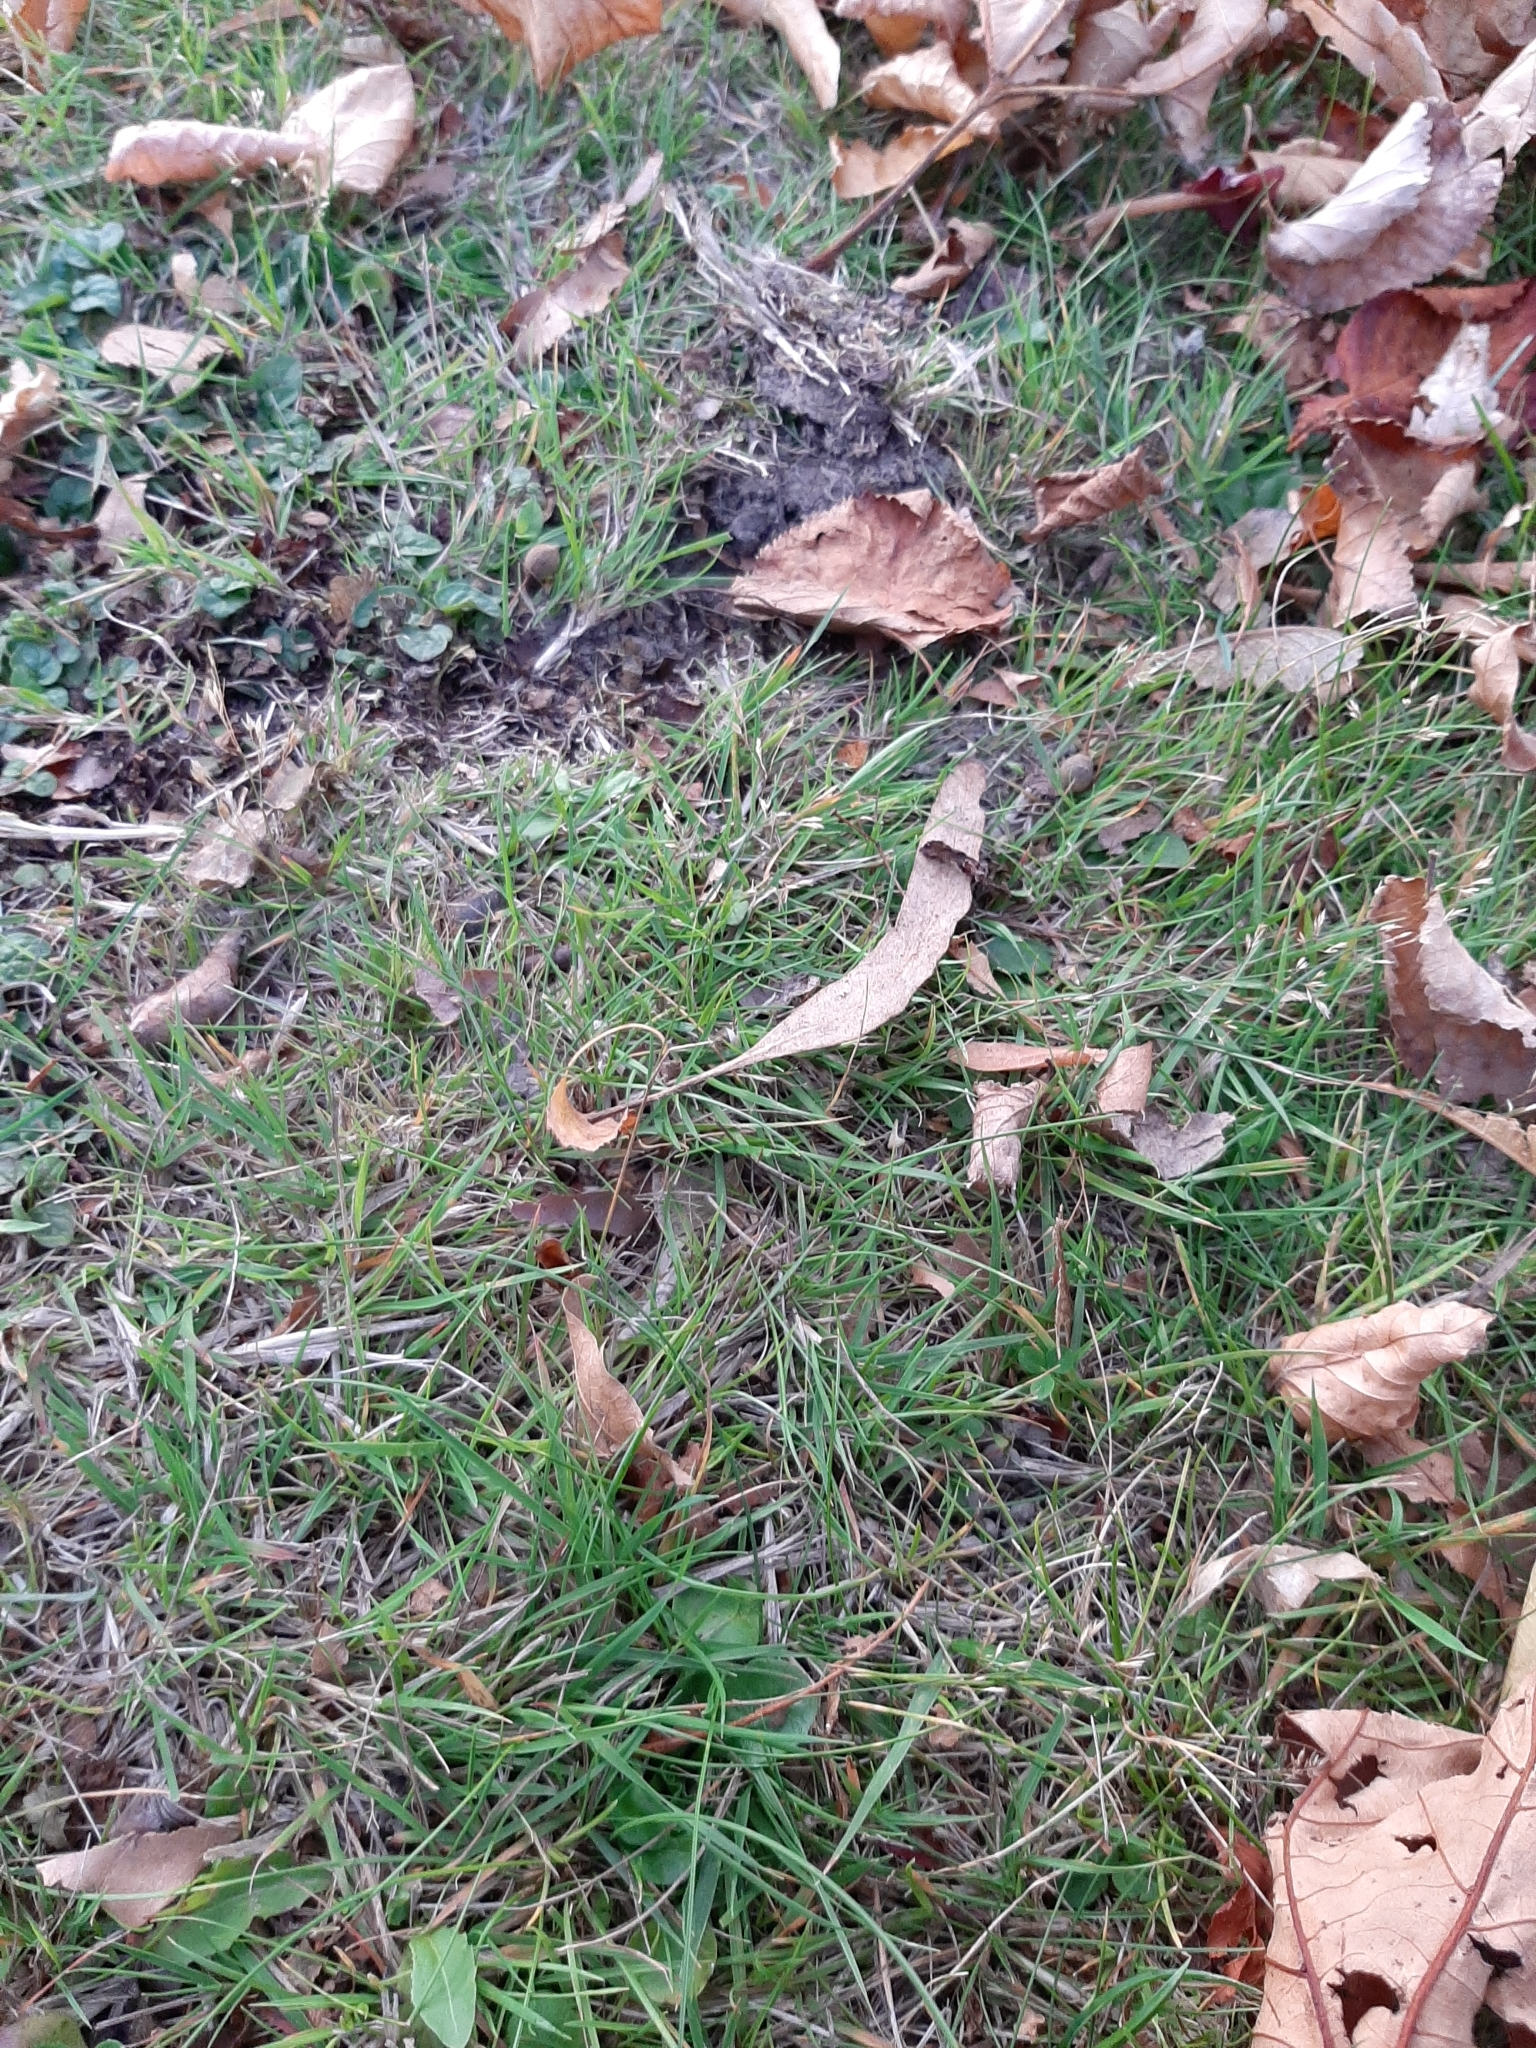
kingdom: Plantae
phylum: Tracheophyta
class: Liliopsida
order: Poales
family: Poaceae
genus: Agrostis
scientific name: Agrostis capillaris
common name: Colonial bentgrass
